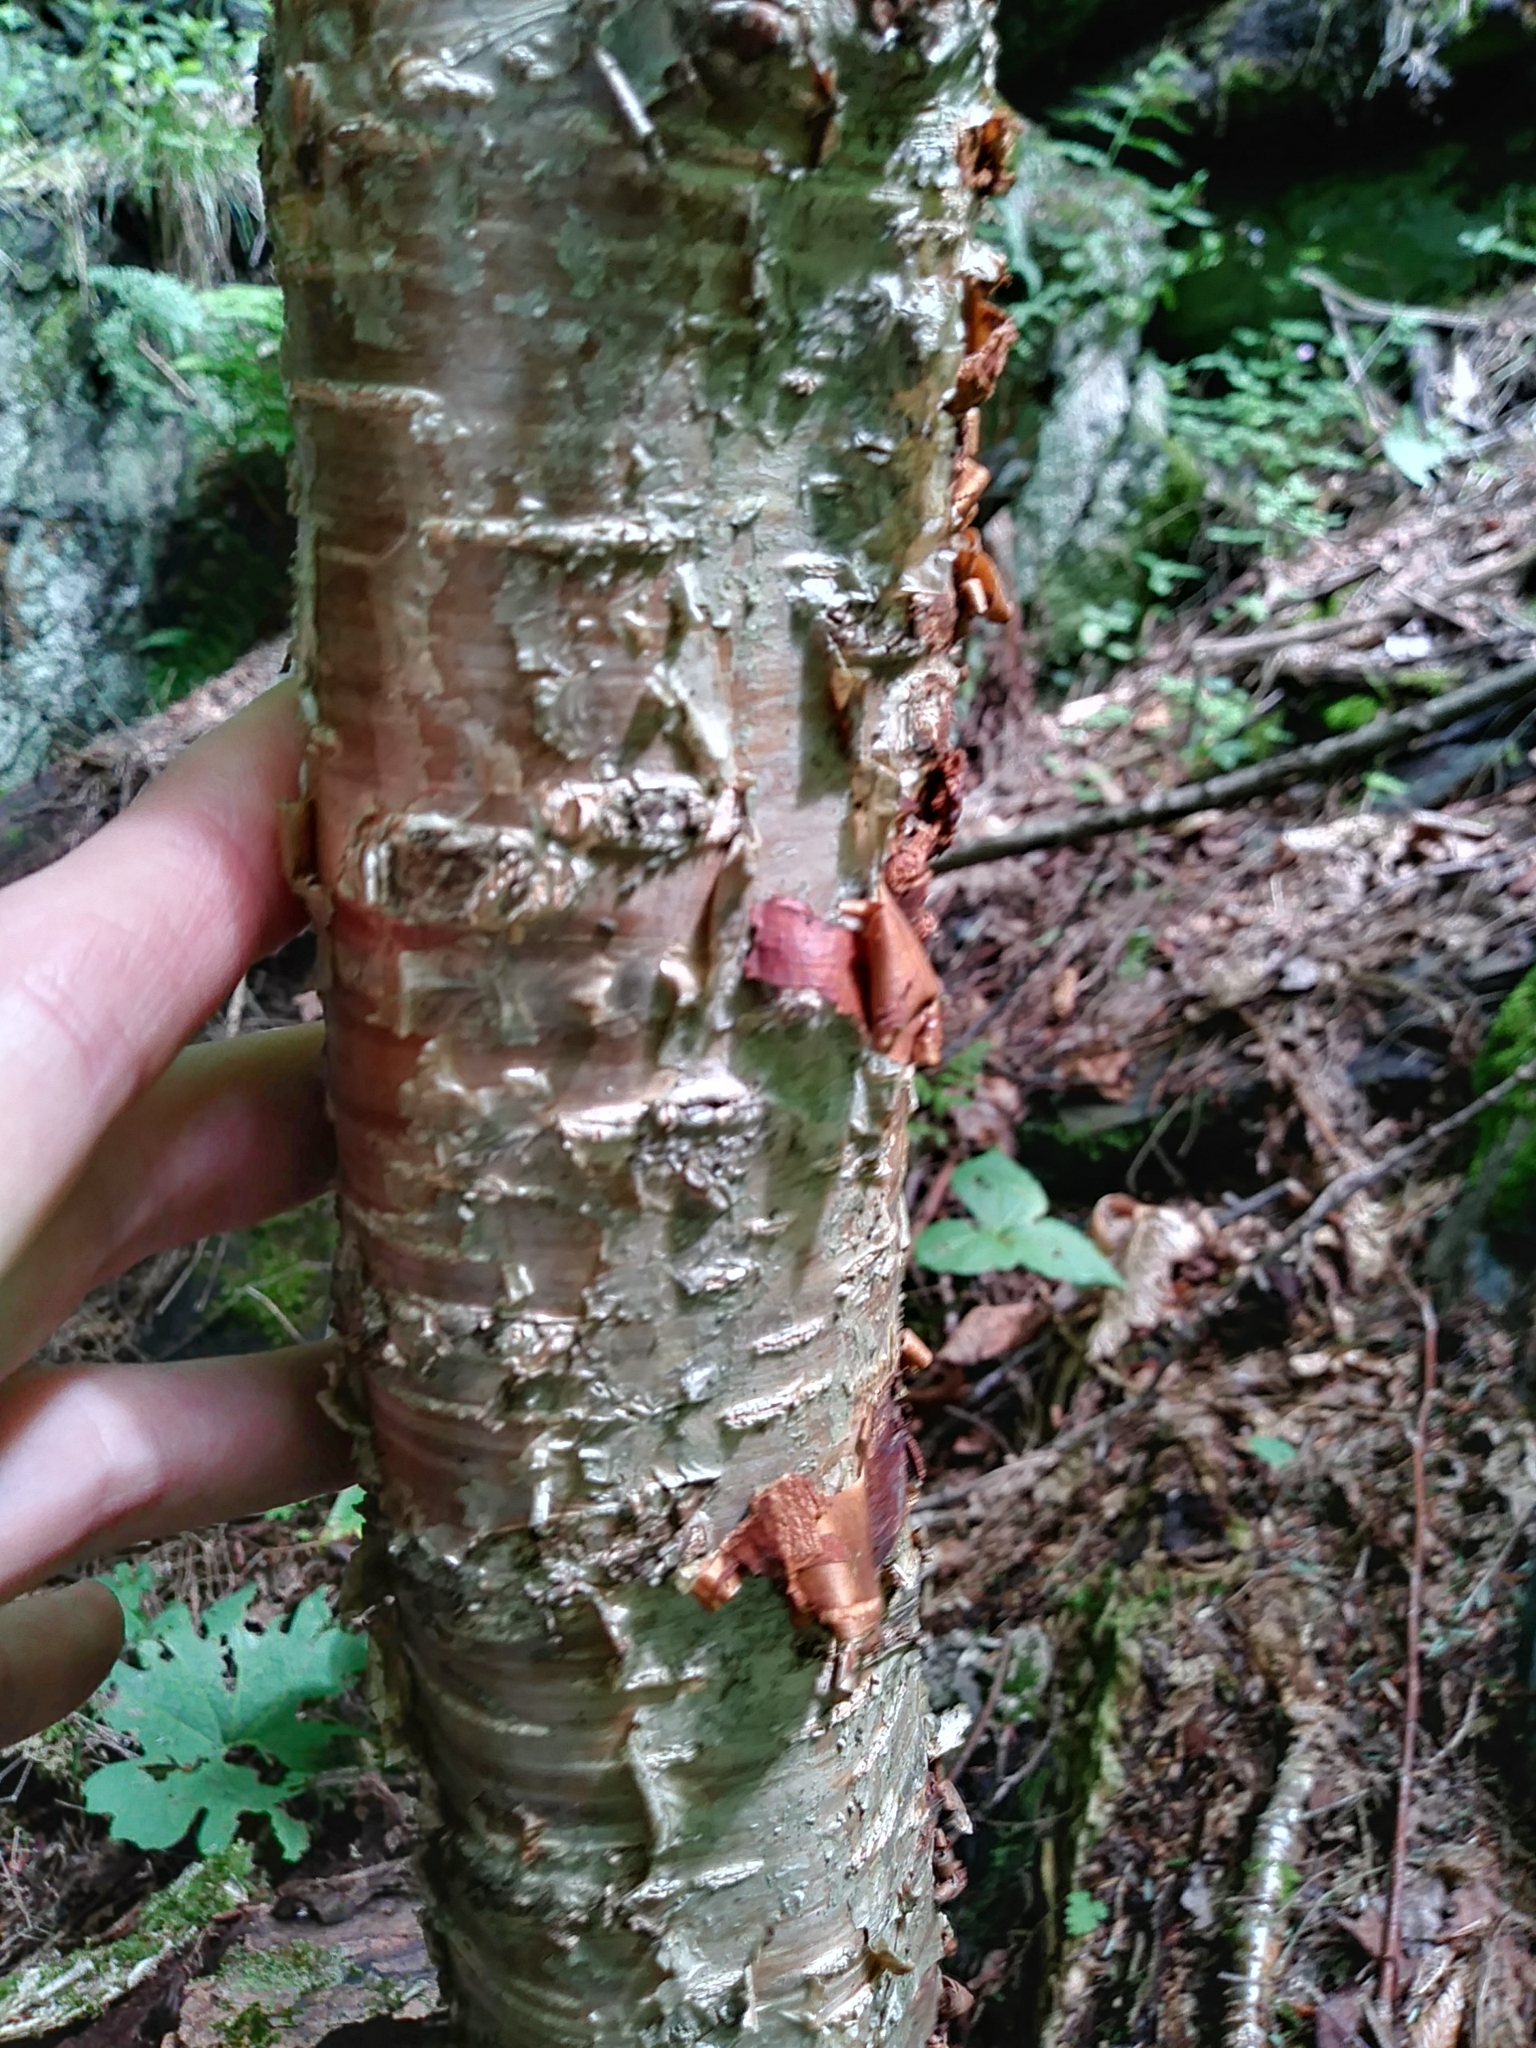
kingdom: Plantae
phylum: Tracheophyta
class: Magnoliopsida
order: Fagales
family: Betulaceae
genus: Betula
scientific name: Betula alleghaniensis
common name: Yellow birch
